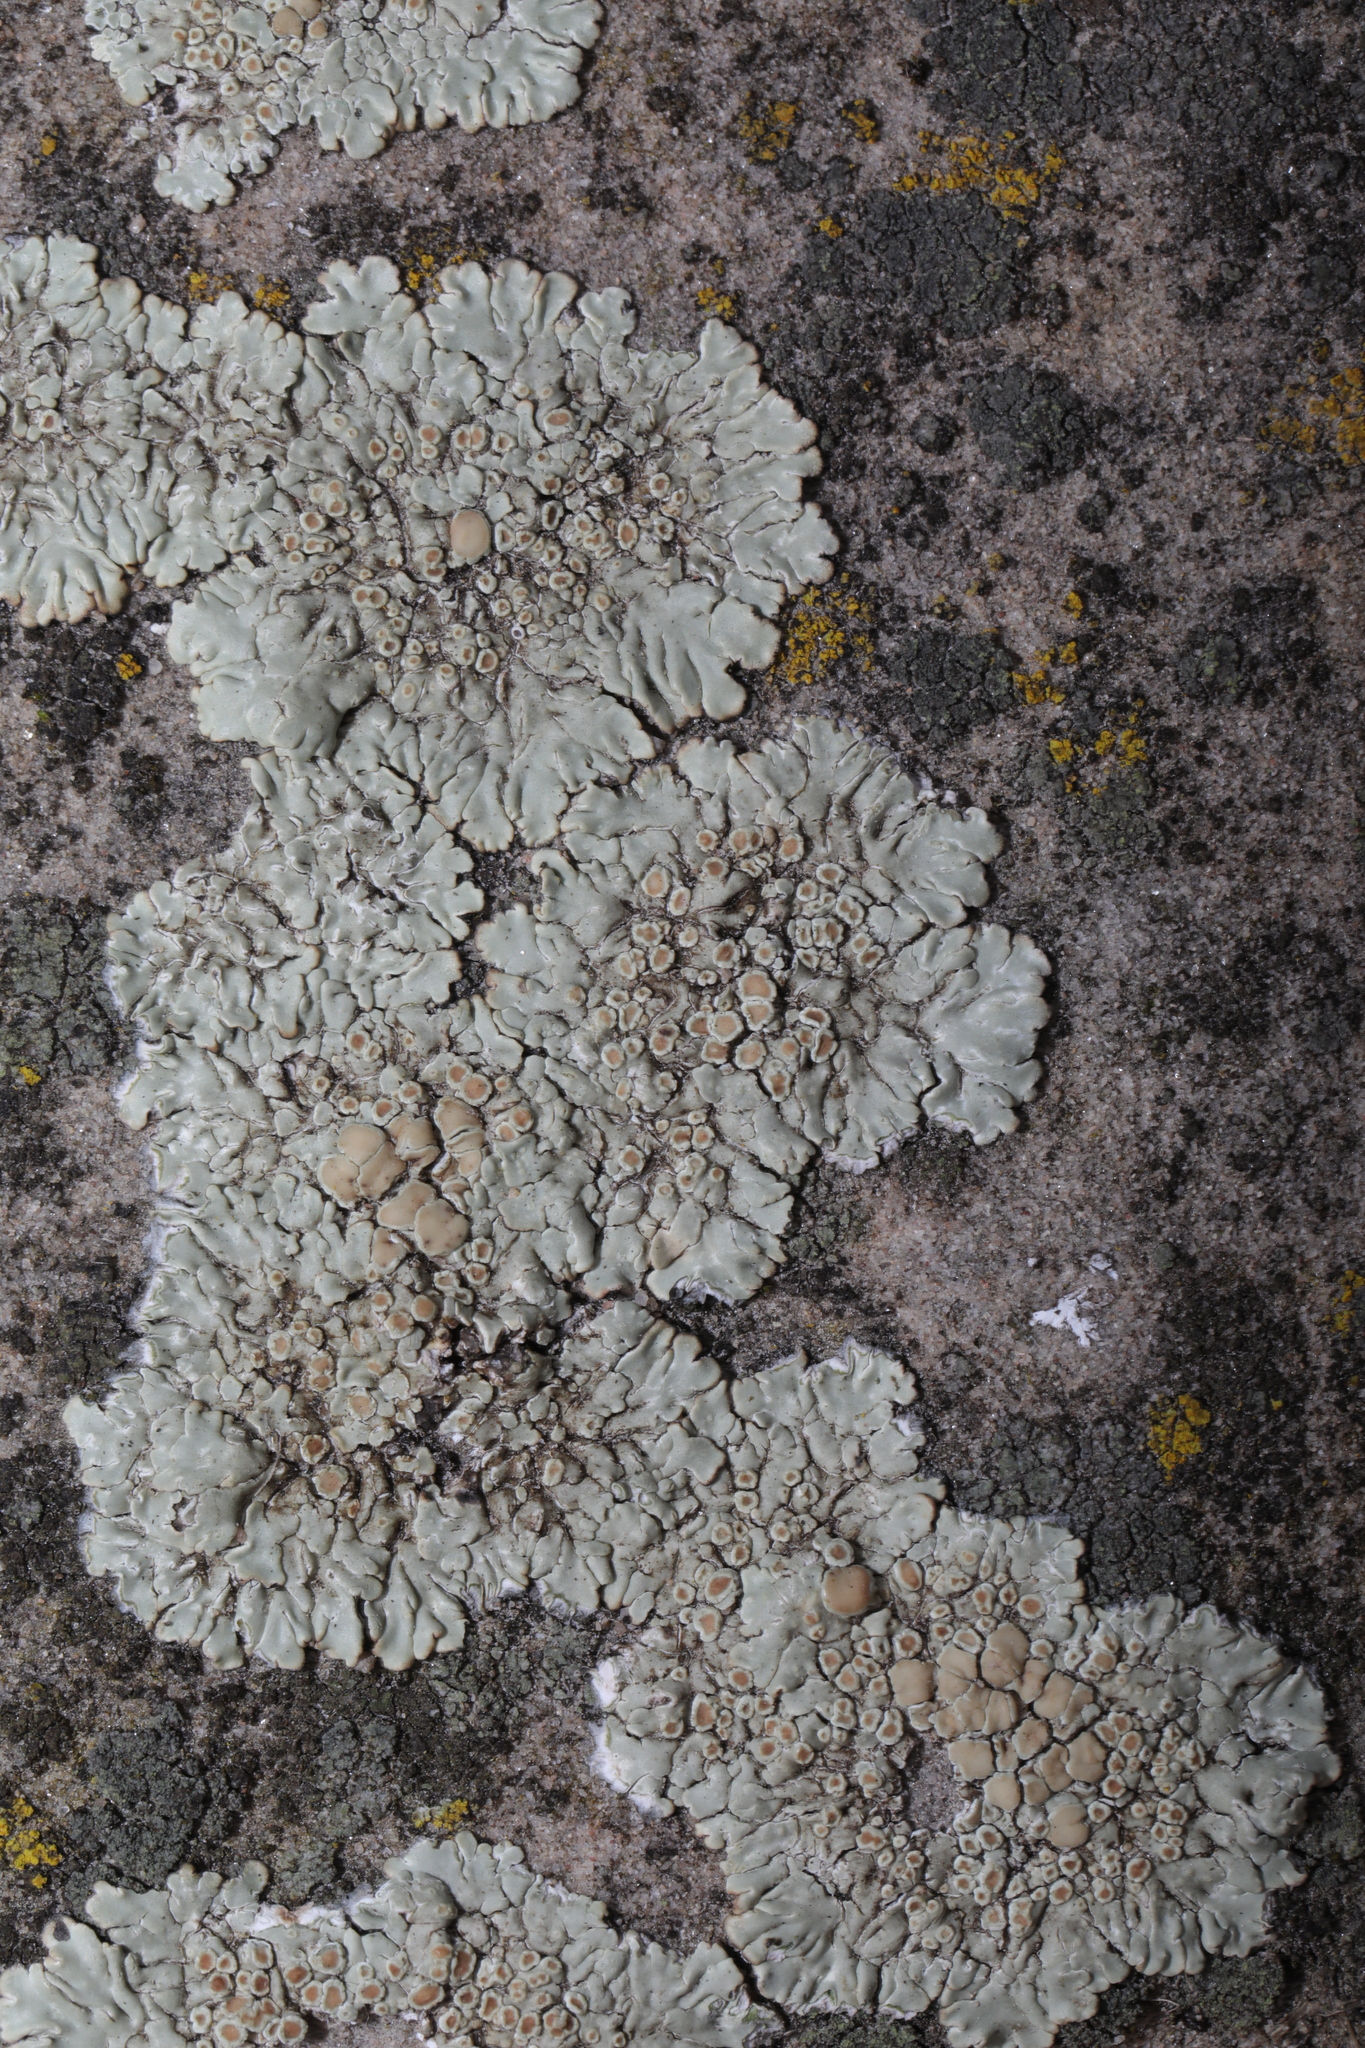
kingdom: Fungi
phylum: Ascomycota
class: Lecanoromycetes
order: Lecanorales
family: Lecanoraceae
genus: Protoparmeliopsis
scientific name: Protoparmeliopsis muralis
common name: Stonewall rim lichen
